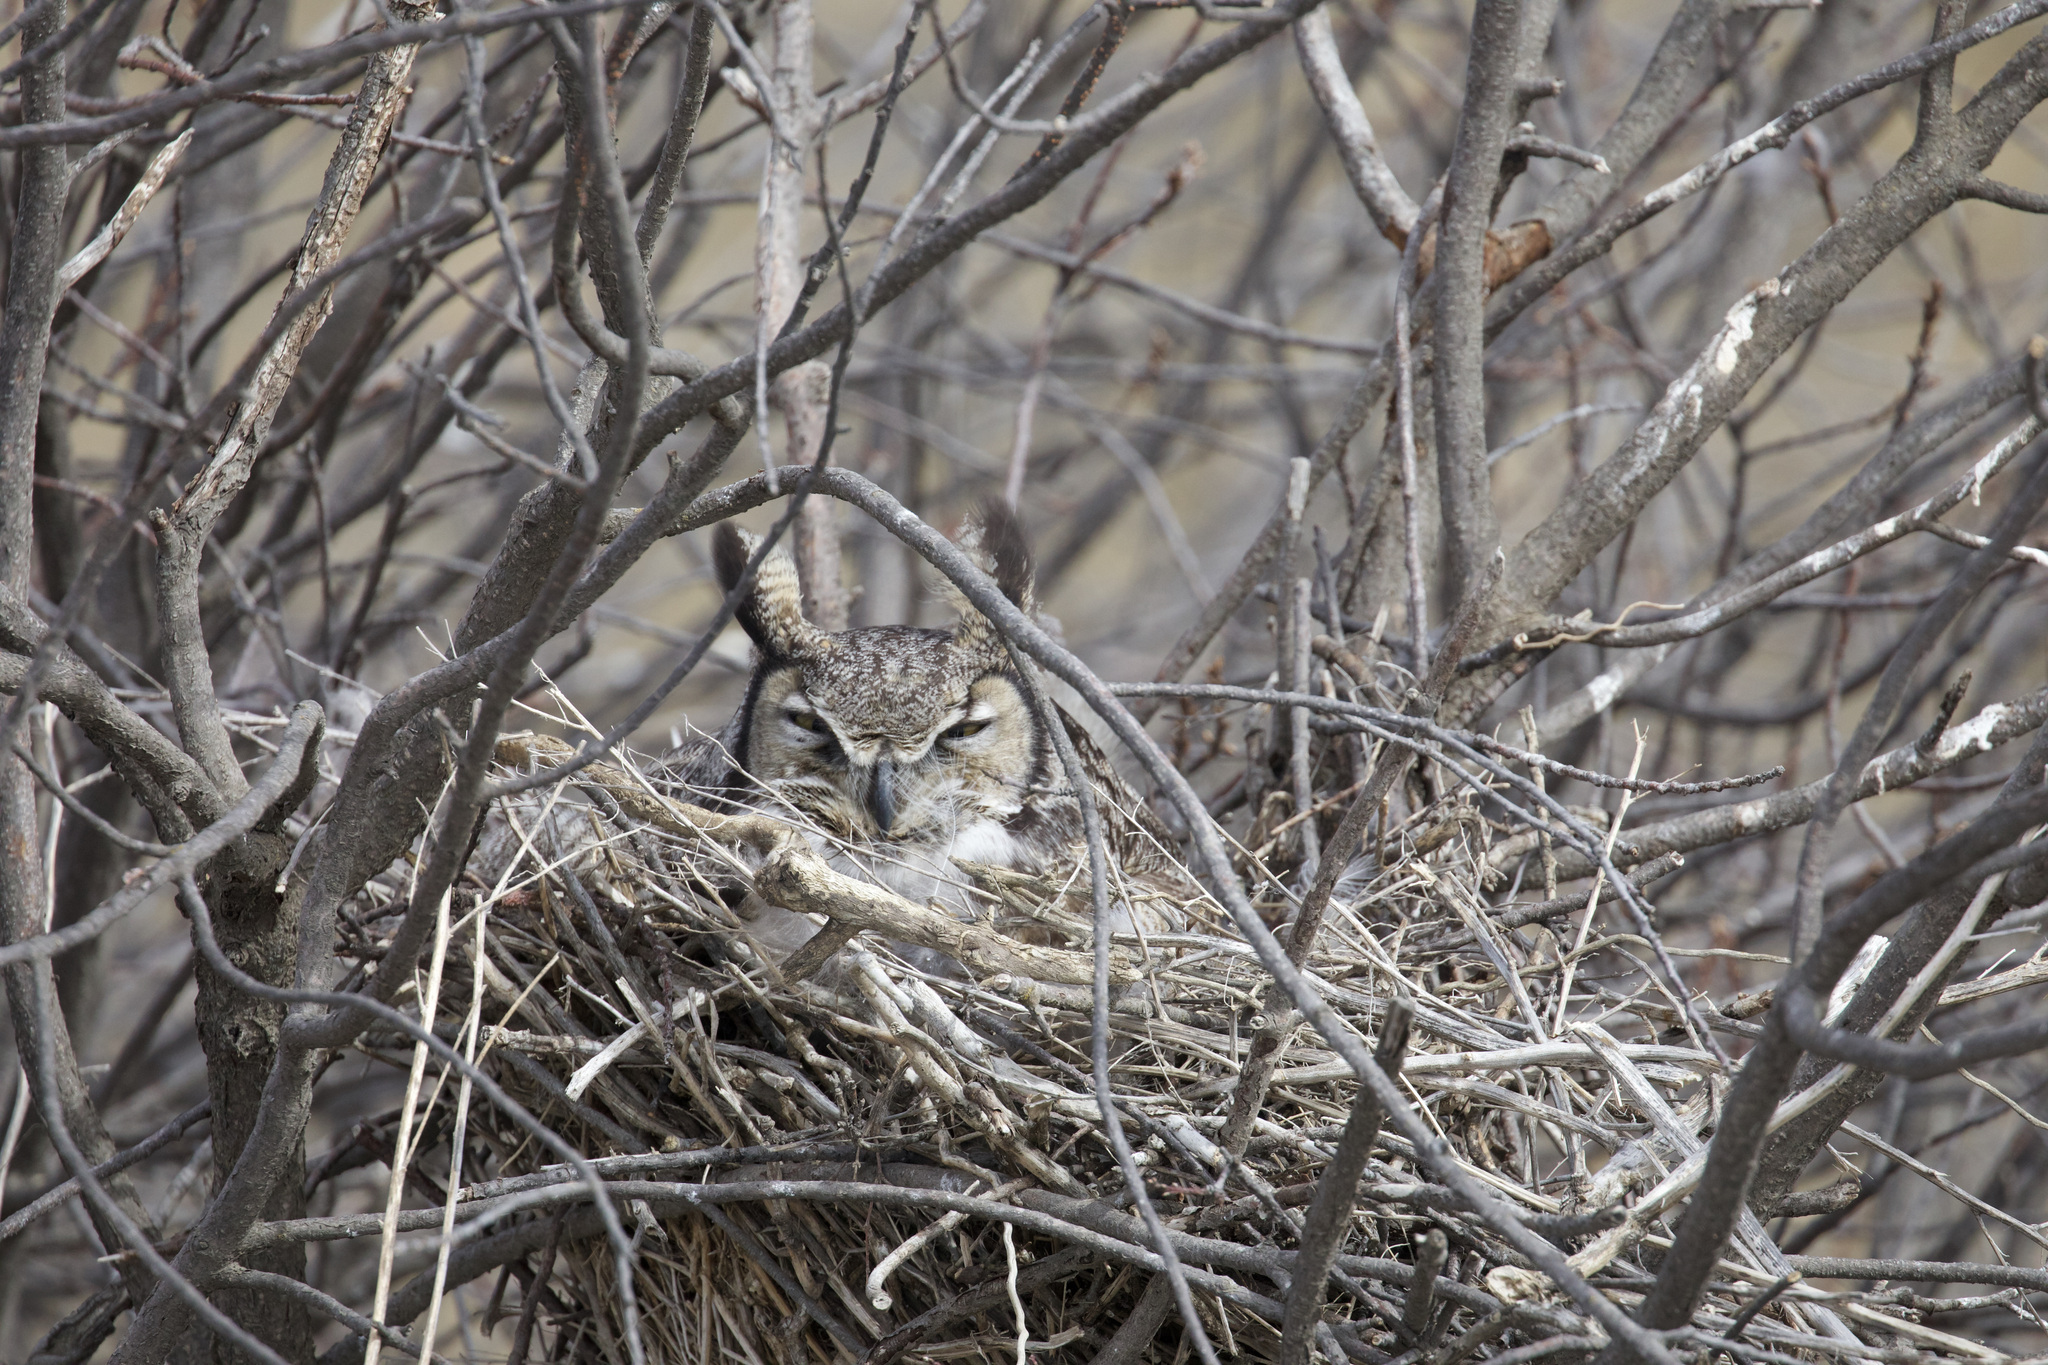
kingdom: Animalia
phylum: Chordata
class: Aves
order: Strigiformes
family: Strigidae
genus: Bubo
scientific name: Bubo virginianus
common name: Great horned owl
